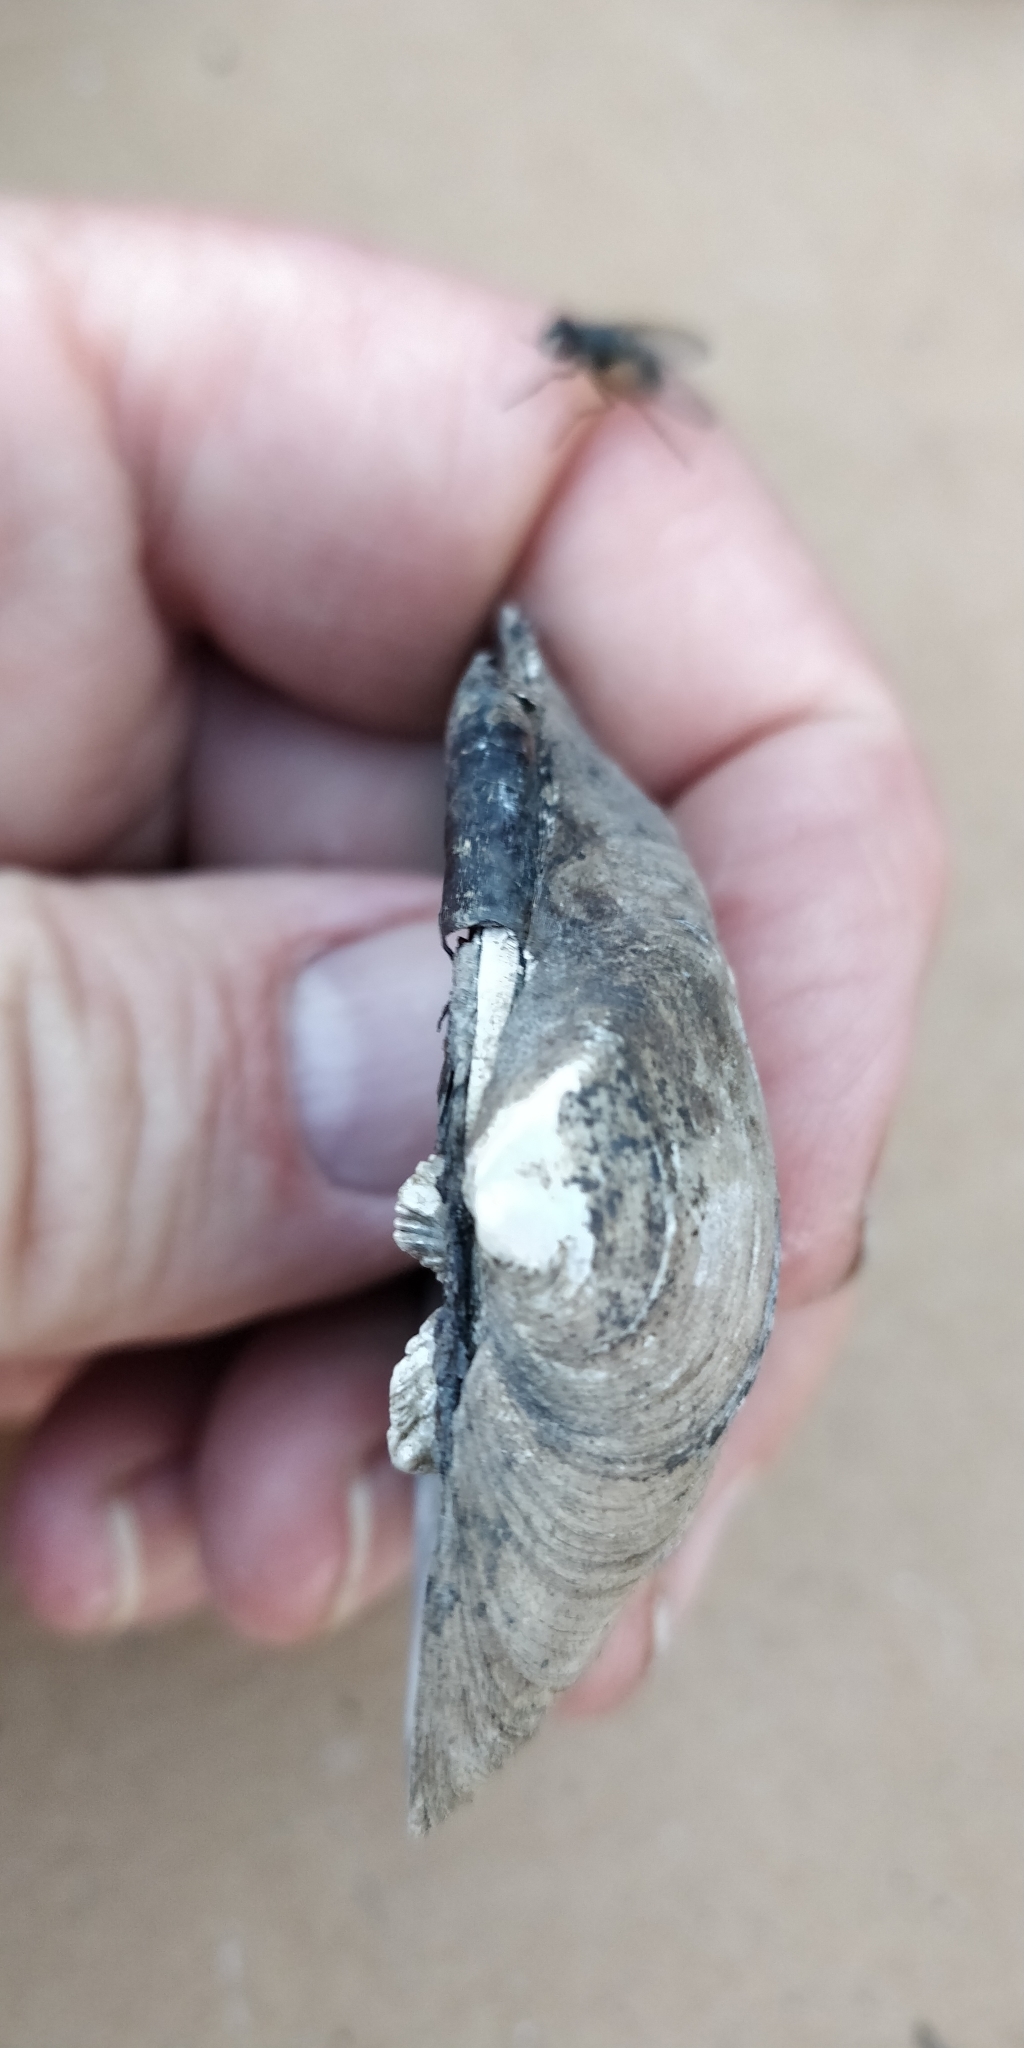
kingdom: Animalia
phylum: Mollusca
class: Bivalvia
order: Unionida
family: Unionidae
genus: Fusconaia
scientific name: Fusconaia flava
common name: Wabash pigtoe
